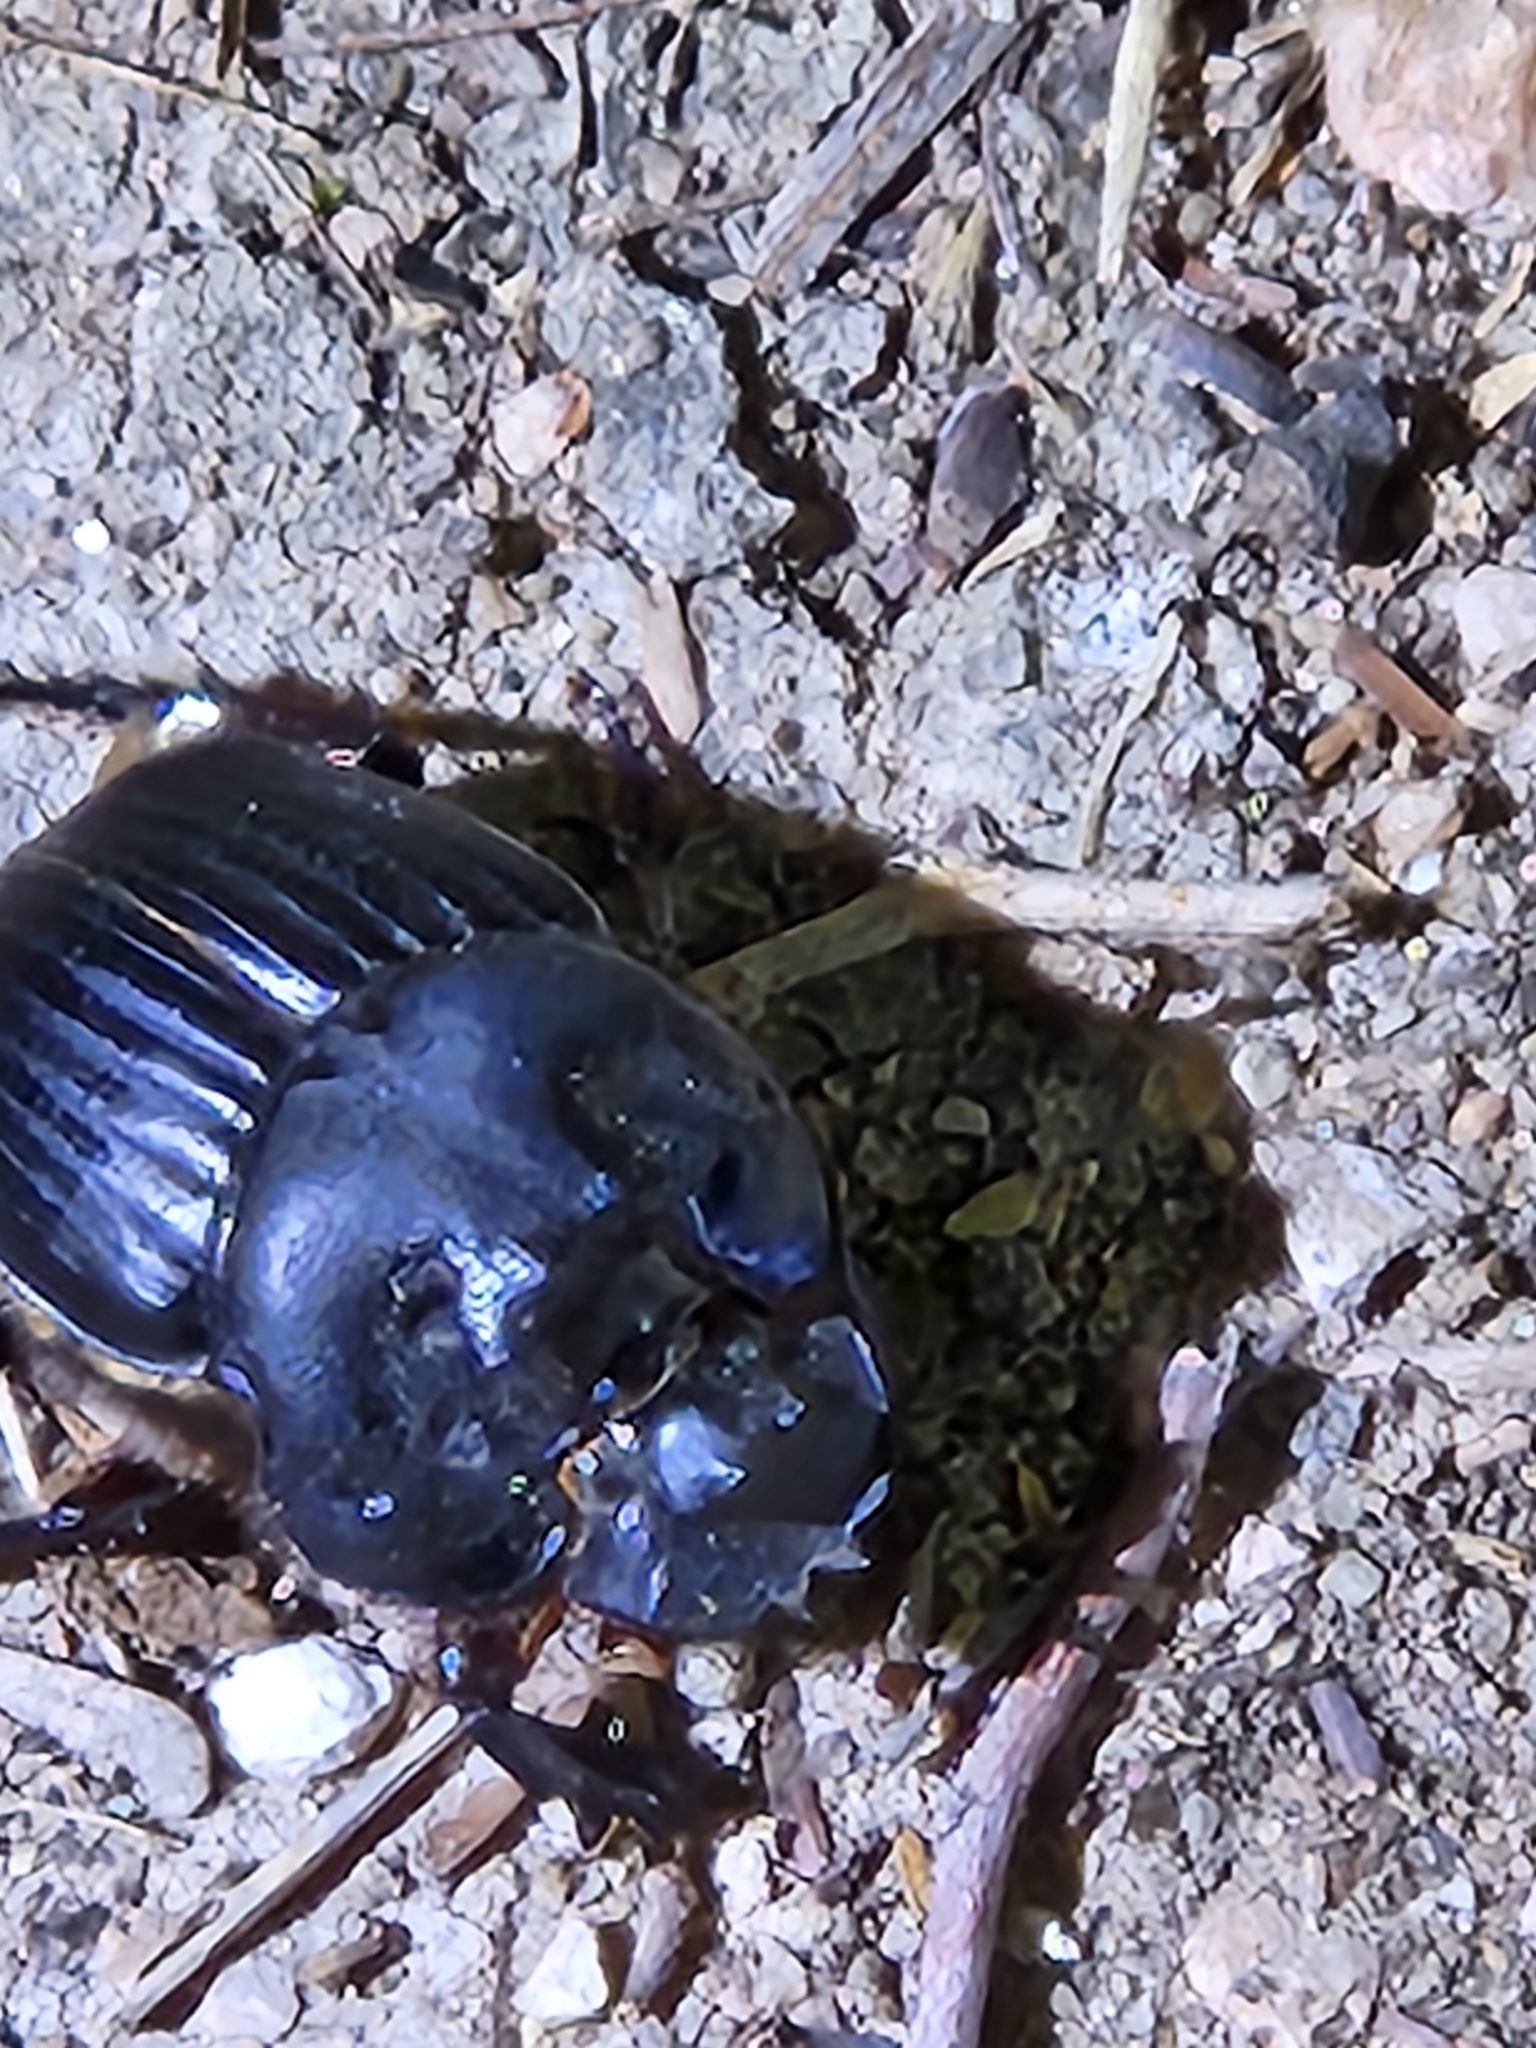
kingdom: Animalia
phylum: Arthropoda
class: Insecta
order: Coleoptera
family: Scarabaeidae
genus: Coprophanaeus
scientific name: Coprophanaeus pluto
